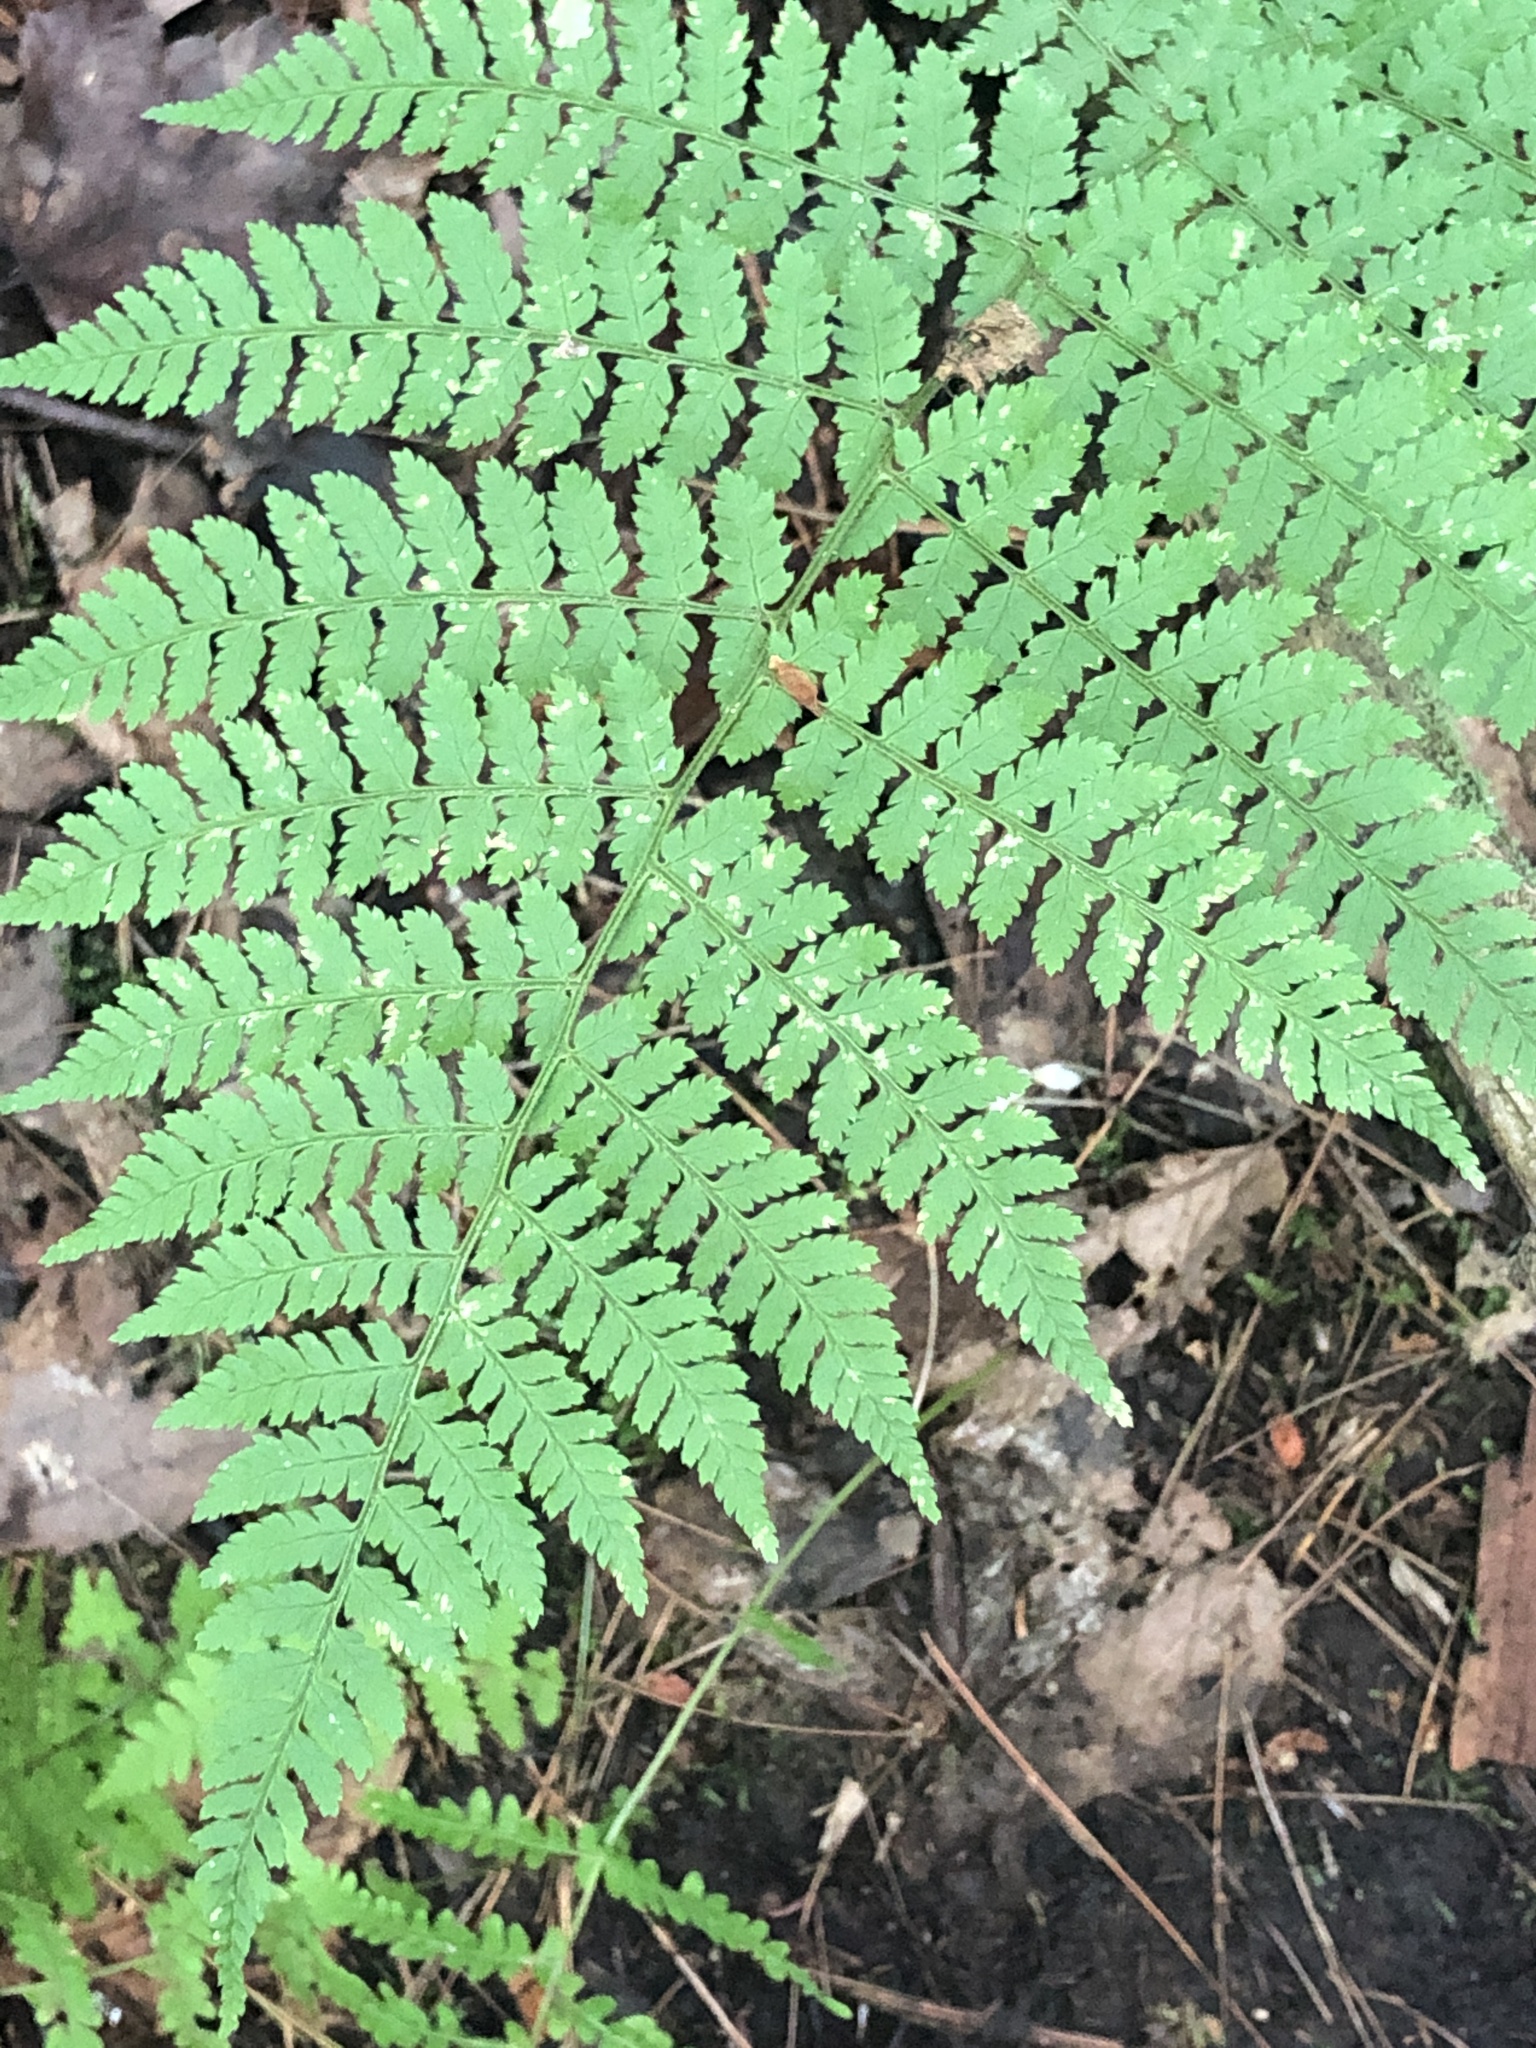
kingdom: Plantae
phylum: Tracheophyta
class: Polypodiopsida
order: Polypodiales
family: Dryopteridaceae
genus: Dryopteris
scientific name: Dryopteris intermedia
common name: Evergreen wood fern
